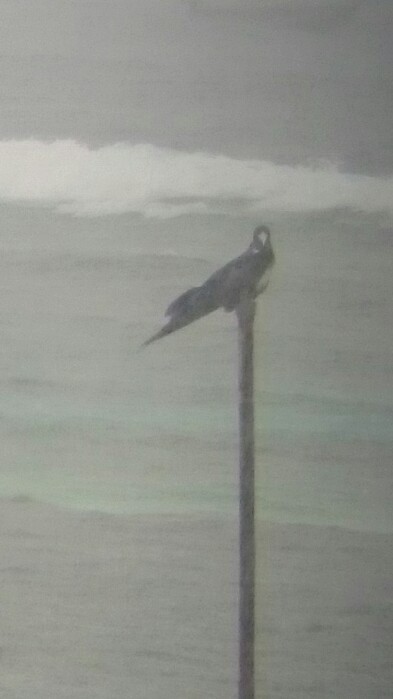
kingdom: Animalia
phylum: Chordata
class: Aves
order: Suliformes
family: Fregatidae
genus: Fregata
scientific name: Fregata magnificens
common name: Magnificent frigatebird
